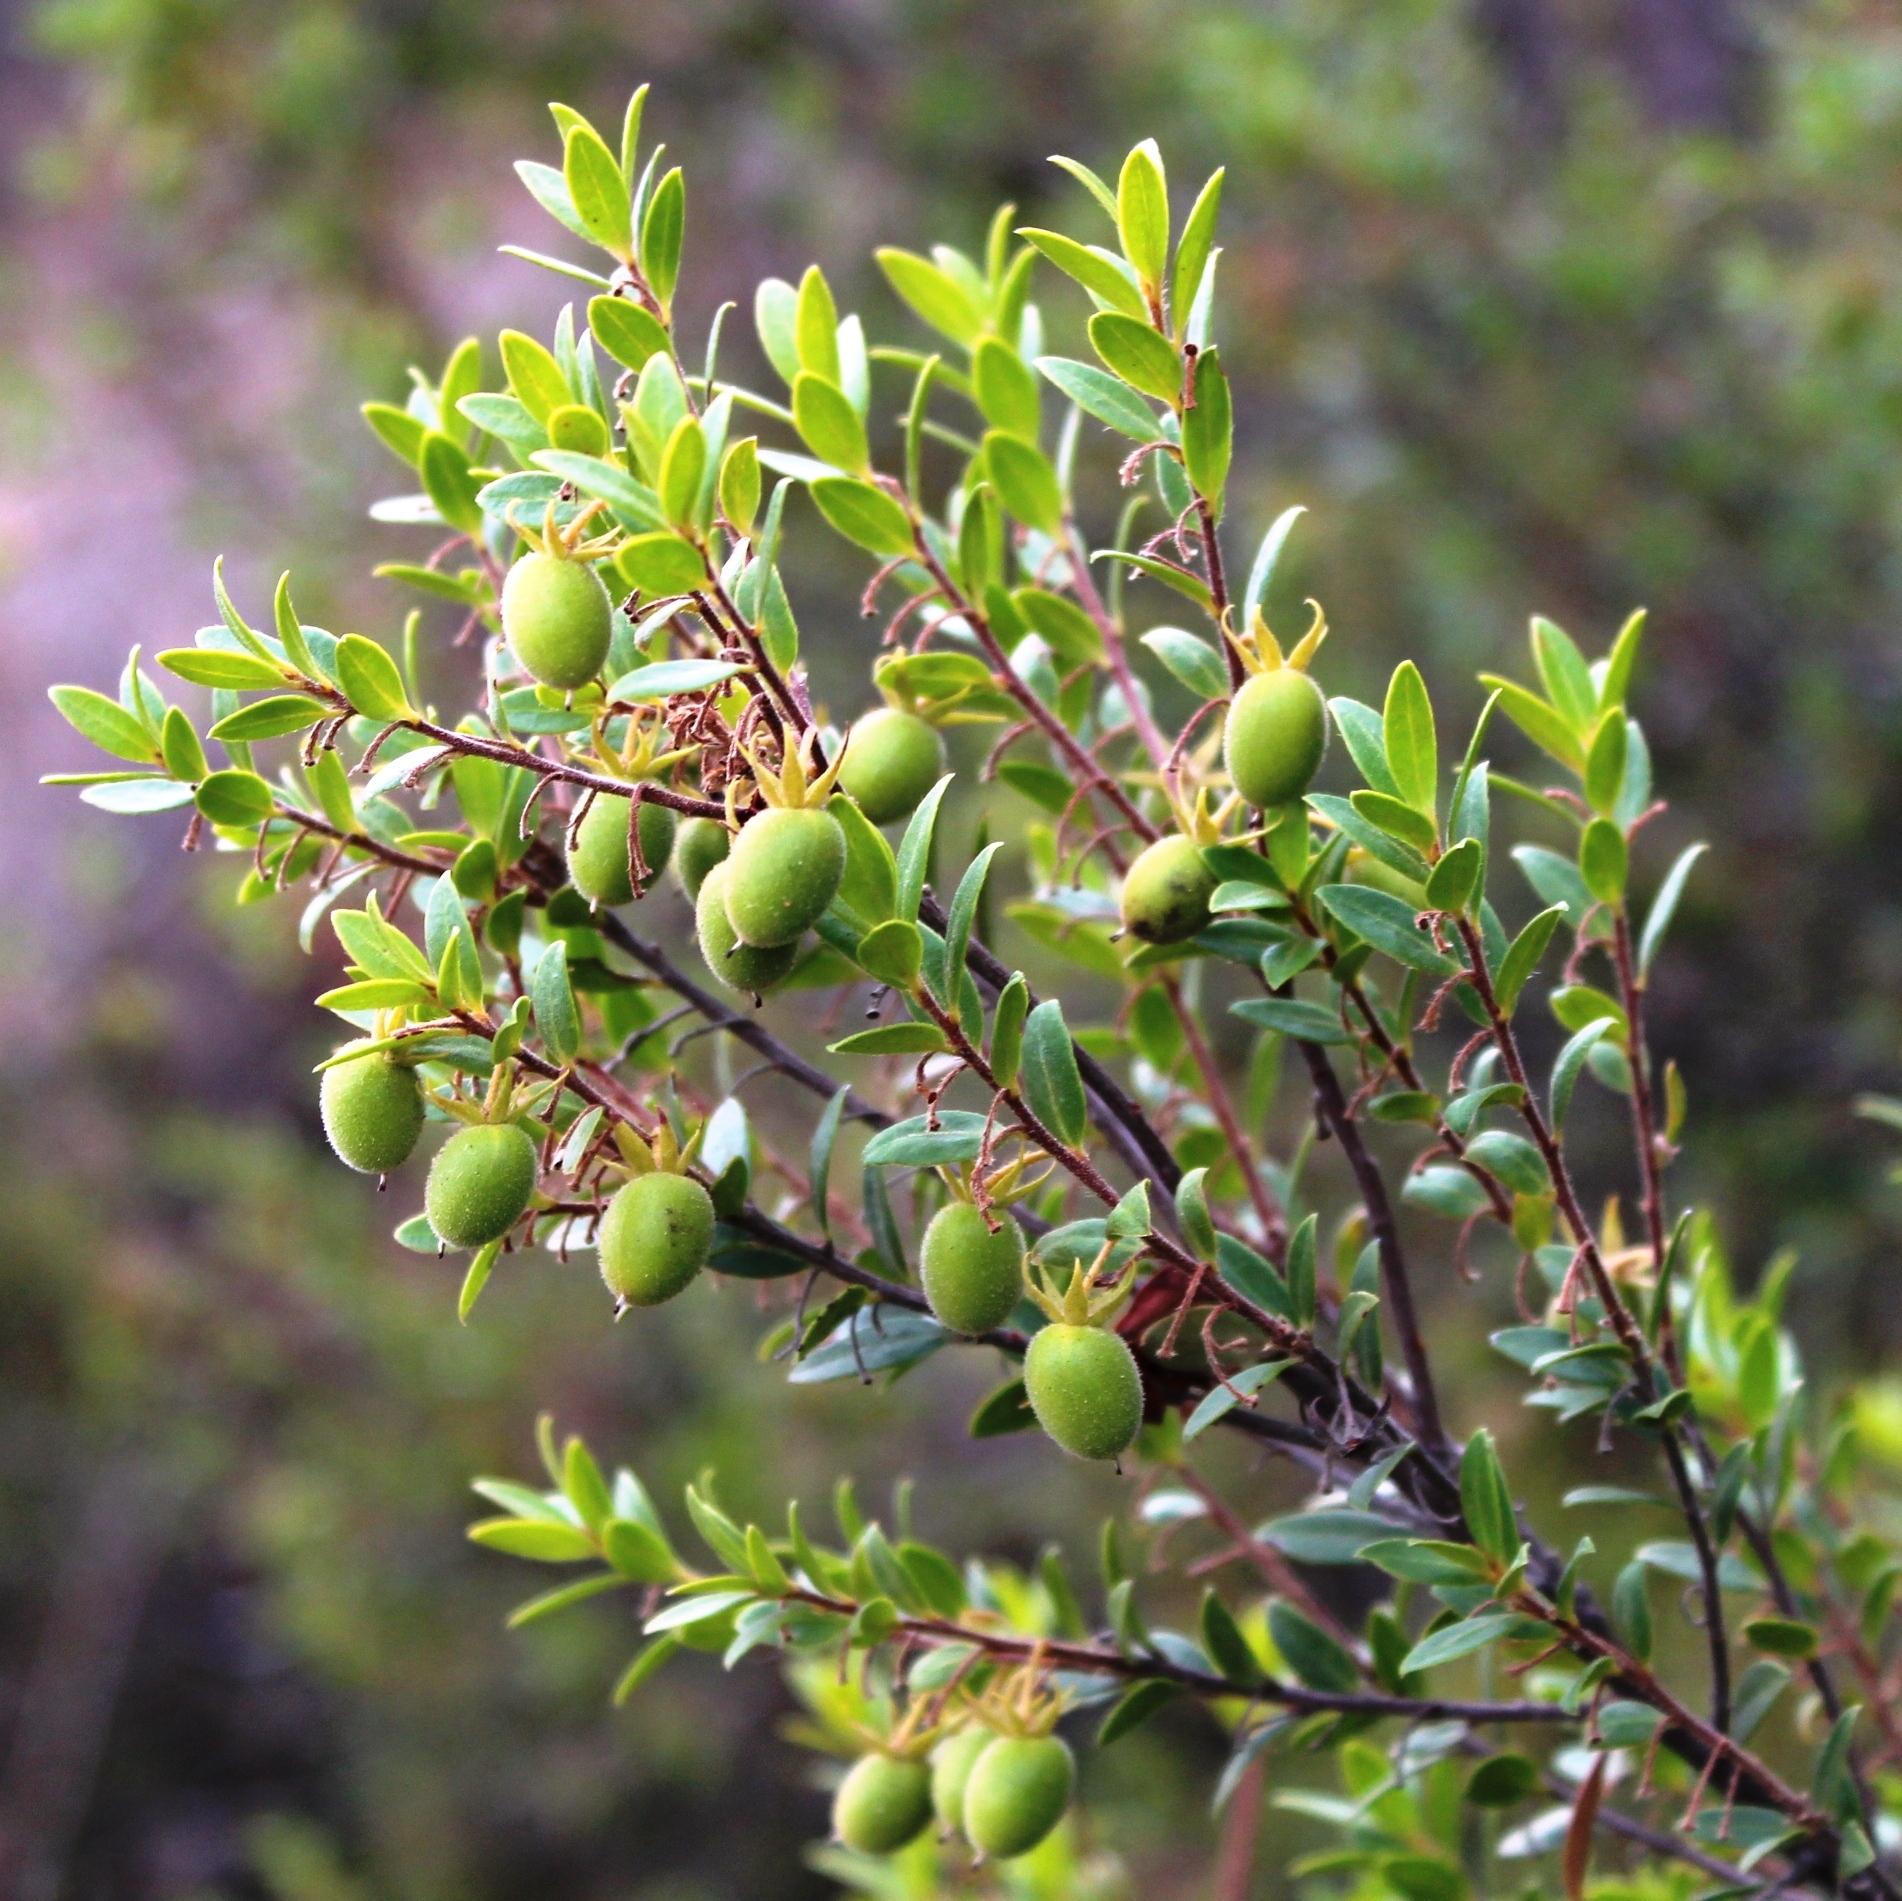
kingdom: Plantae
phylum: Tracheophyta
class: Magnoliopsida
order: Ericales
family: Ebenaceae
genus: Diospyros
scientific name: Diospyros glabra
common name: Fynbos star apple
